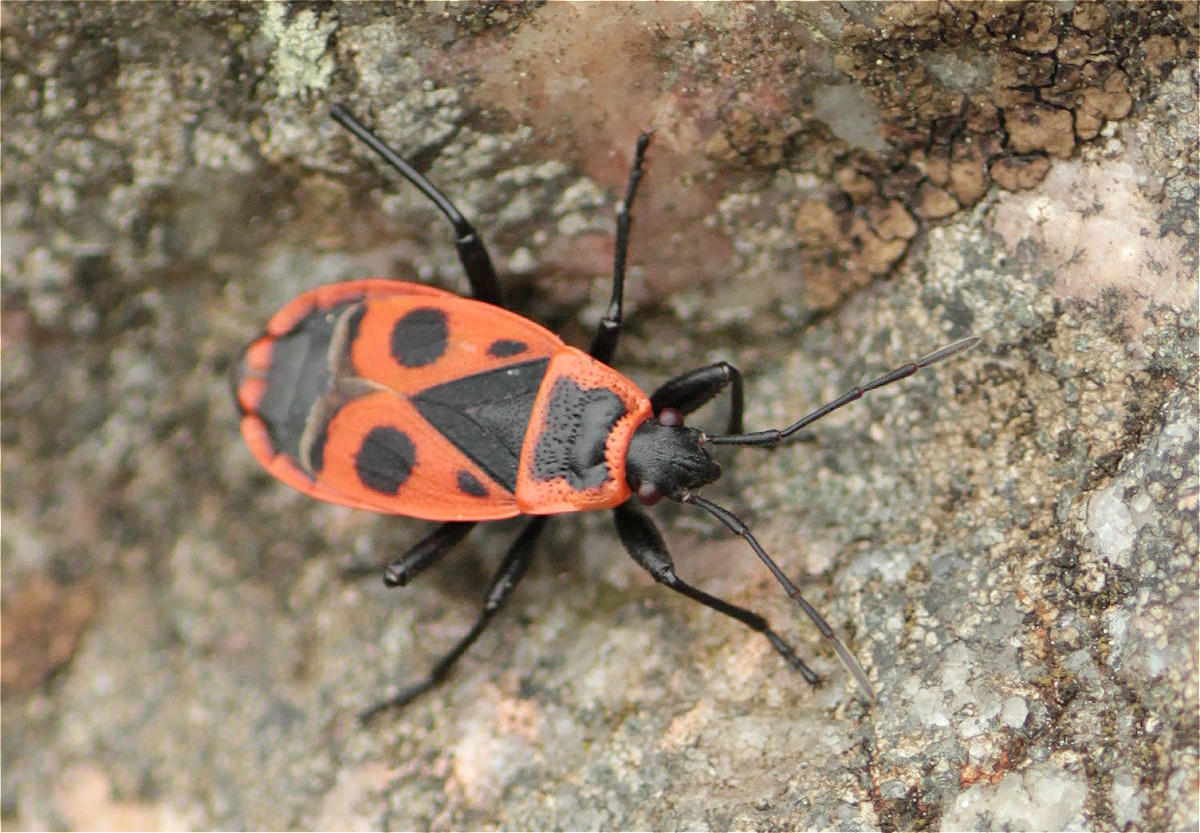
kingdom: Animalia
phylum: Arthropoda
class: Insecta
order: Hemiptera
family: Pyrrhocoridae
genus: Pyrrhocoris
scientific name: Pyrrhocoris apterus
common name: Firebug
